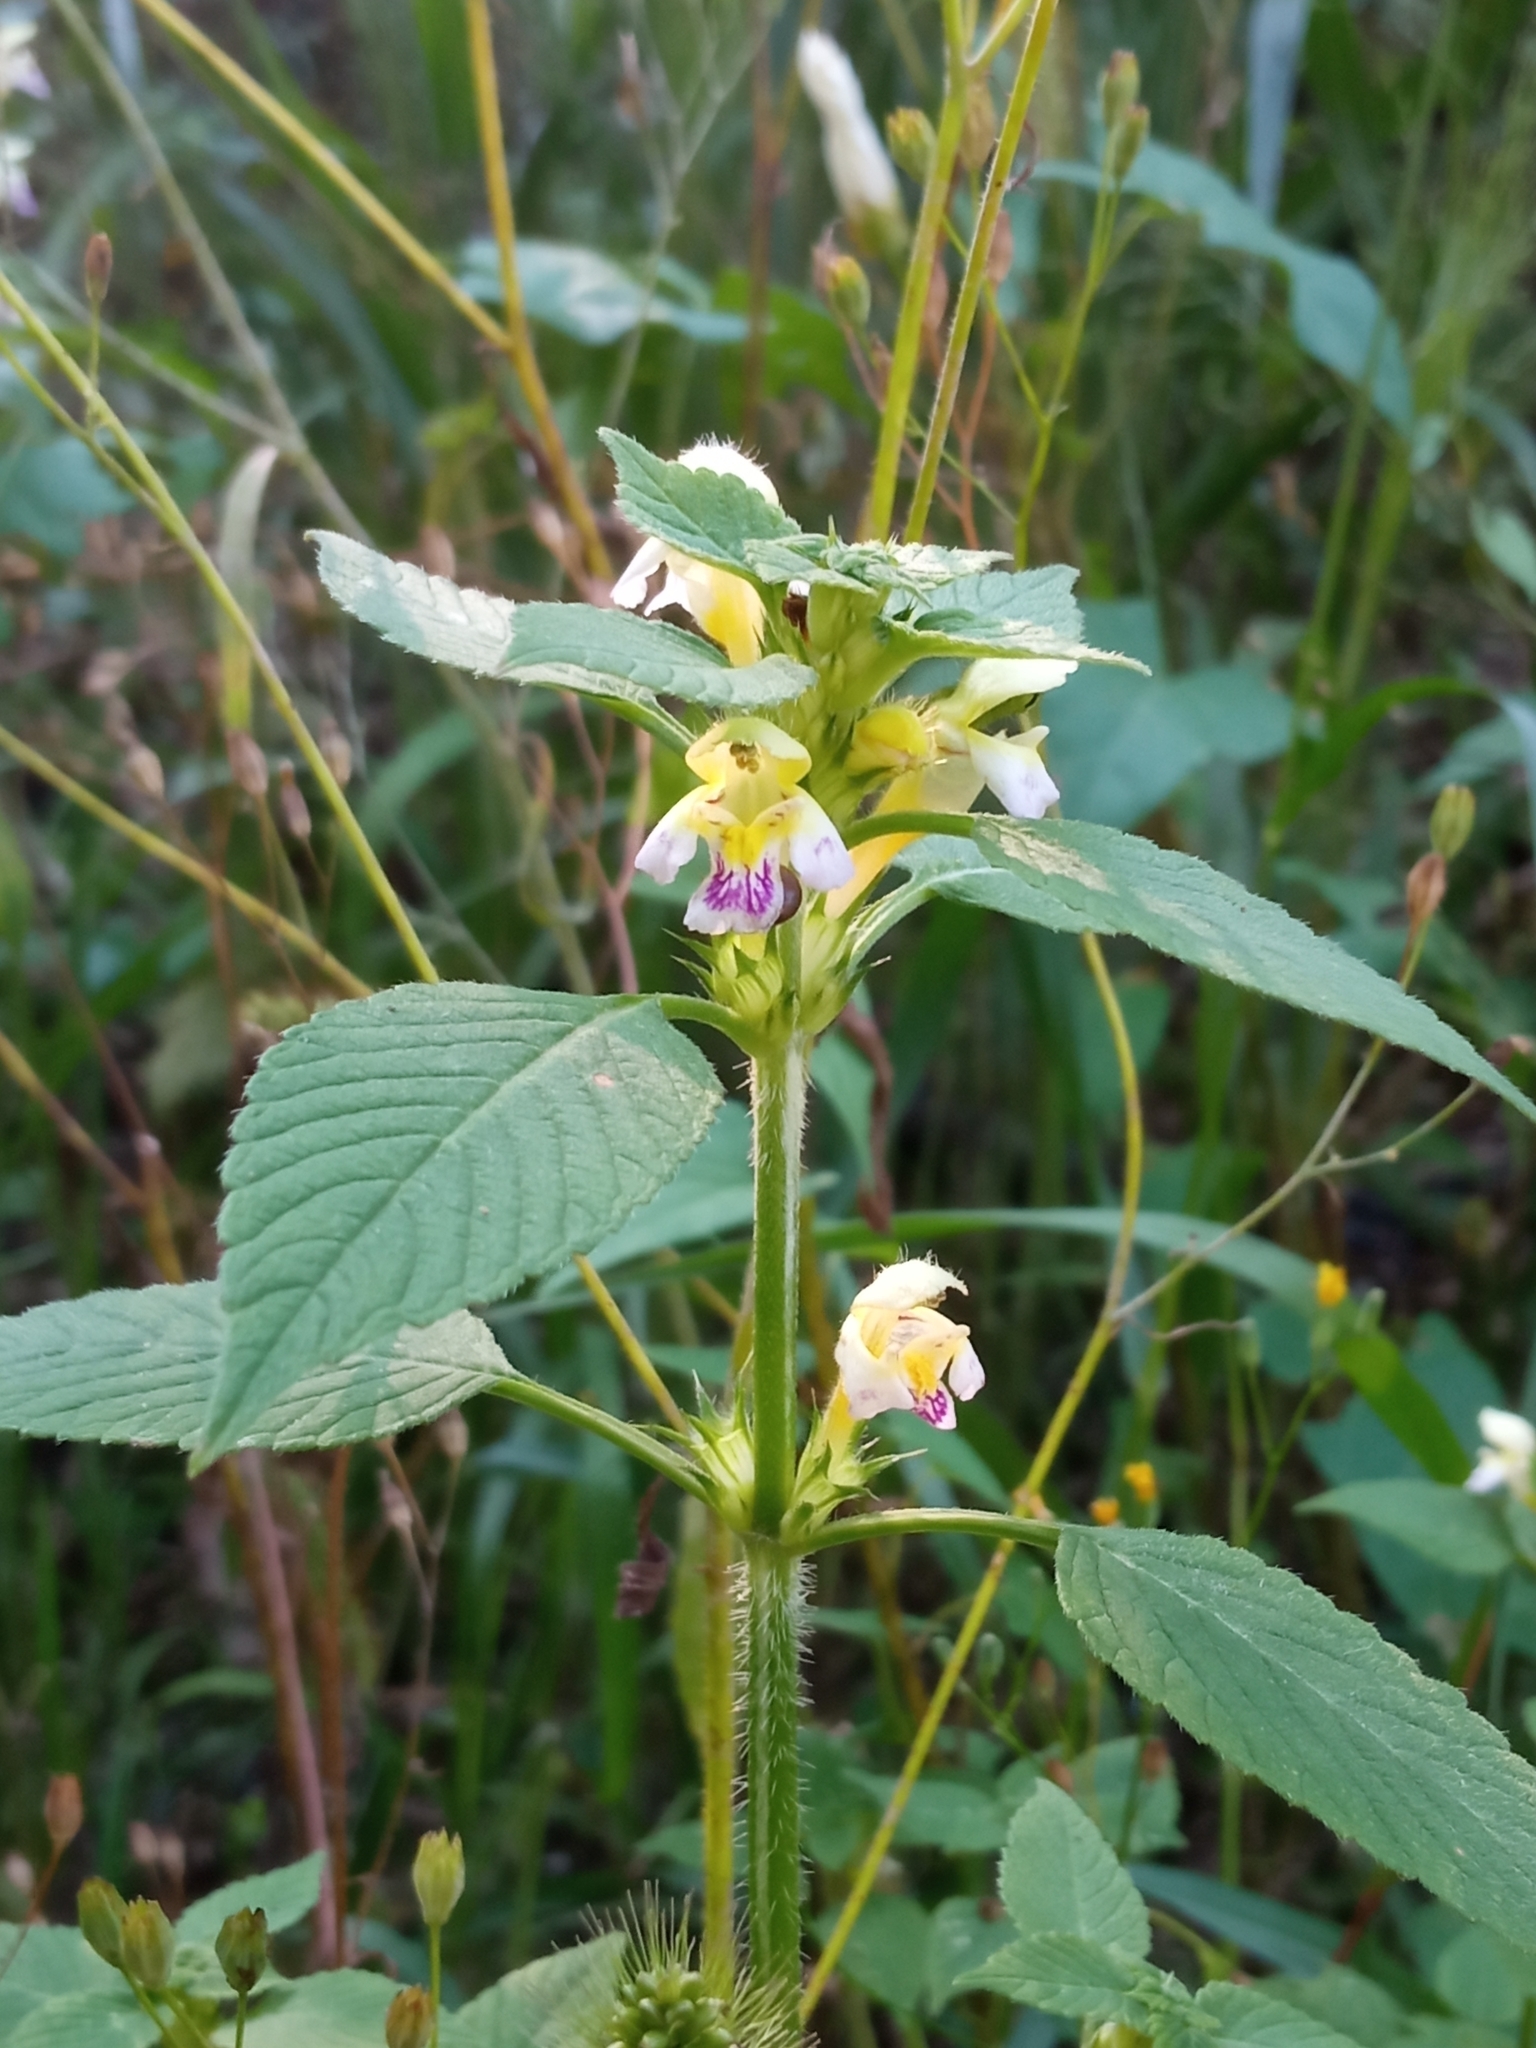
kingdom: Plantae
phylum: Tracheophyta
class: Magnoliopsida
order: Lamiales
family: Lamiaceae
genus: Galeopsis
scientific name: Galeopsis speciosa
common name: Large-flowered hemp-nettle
